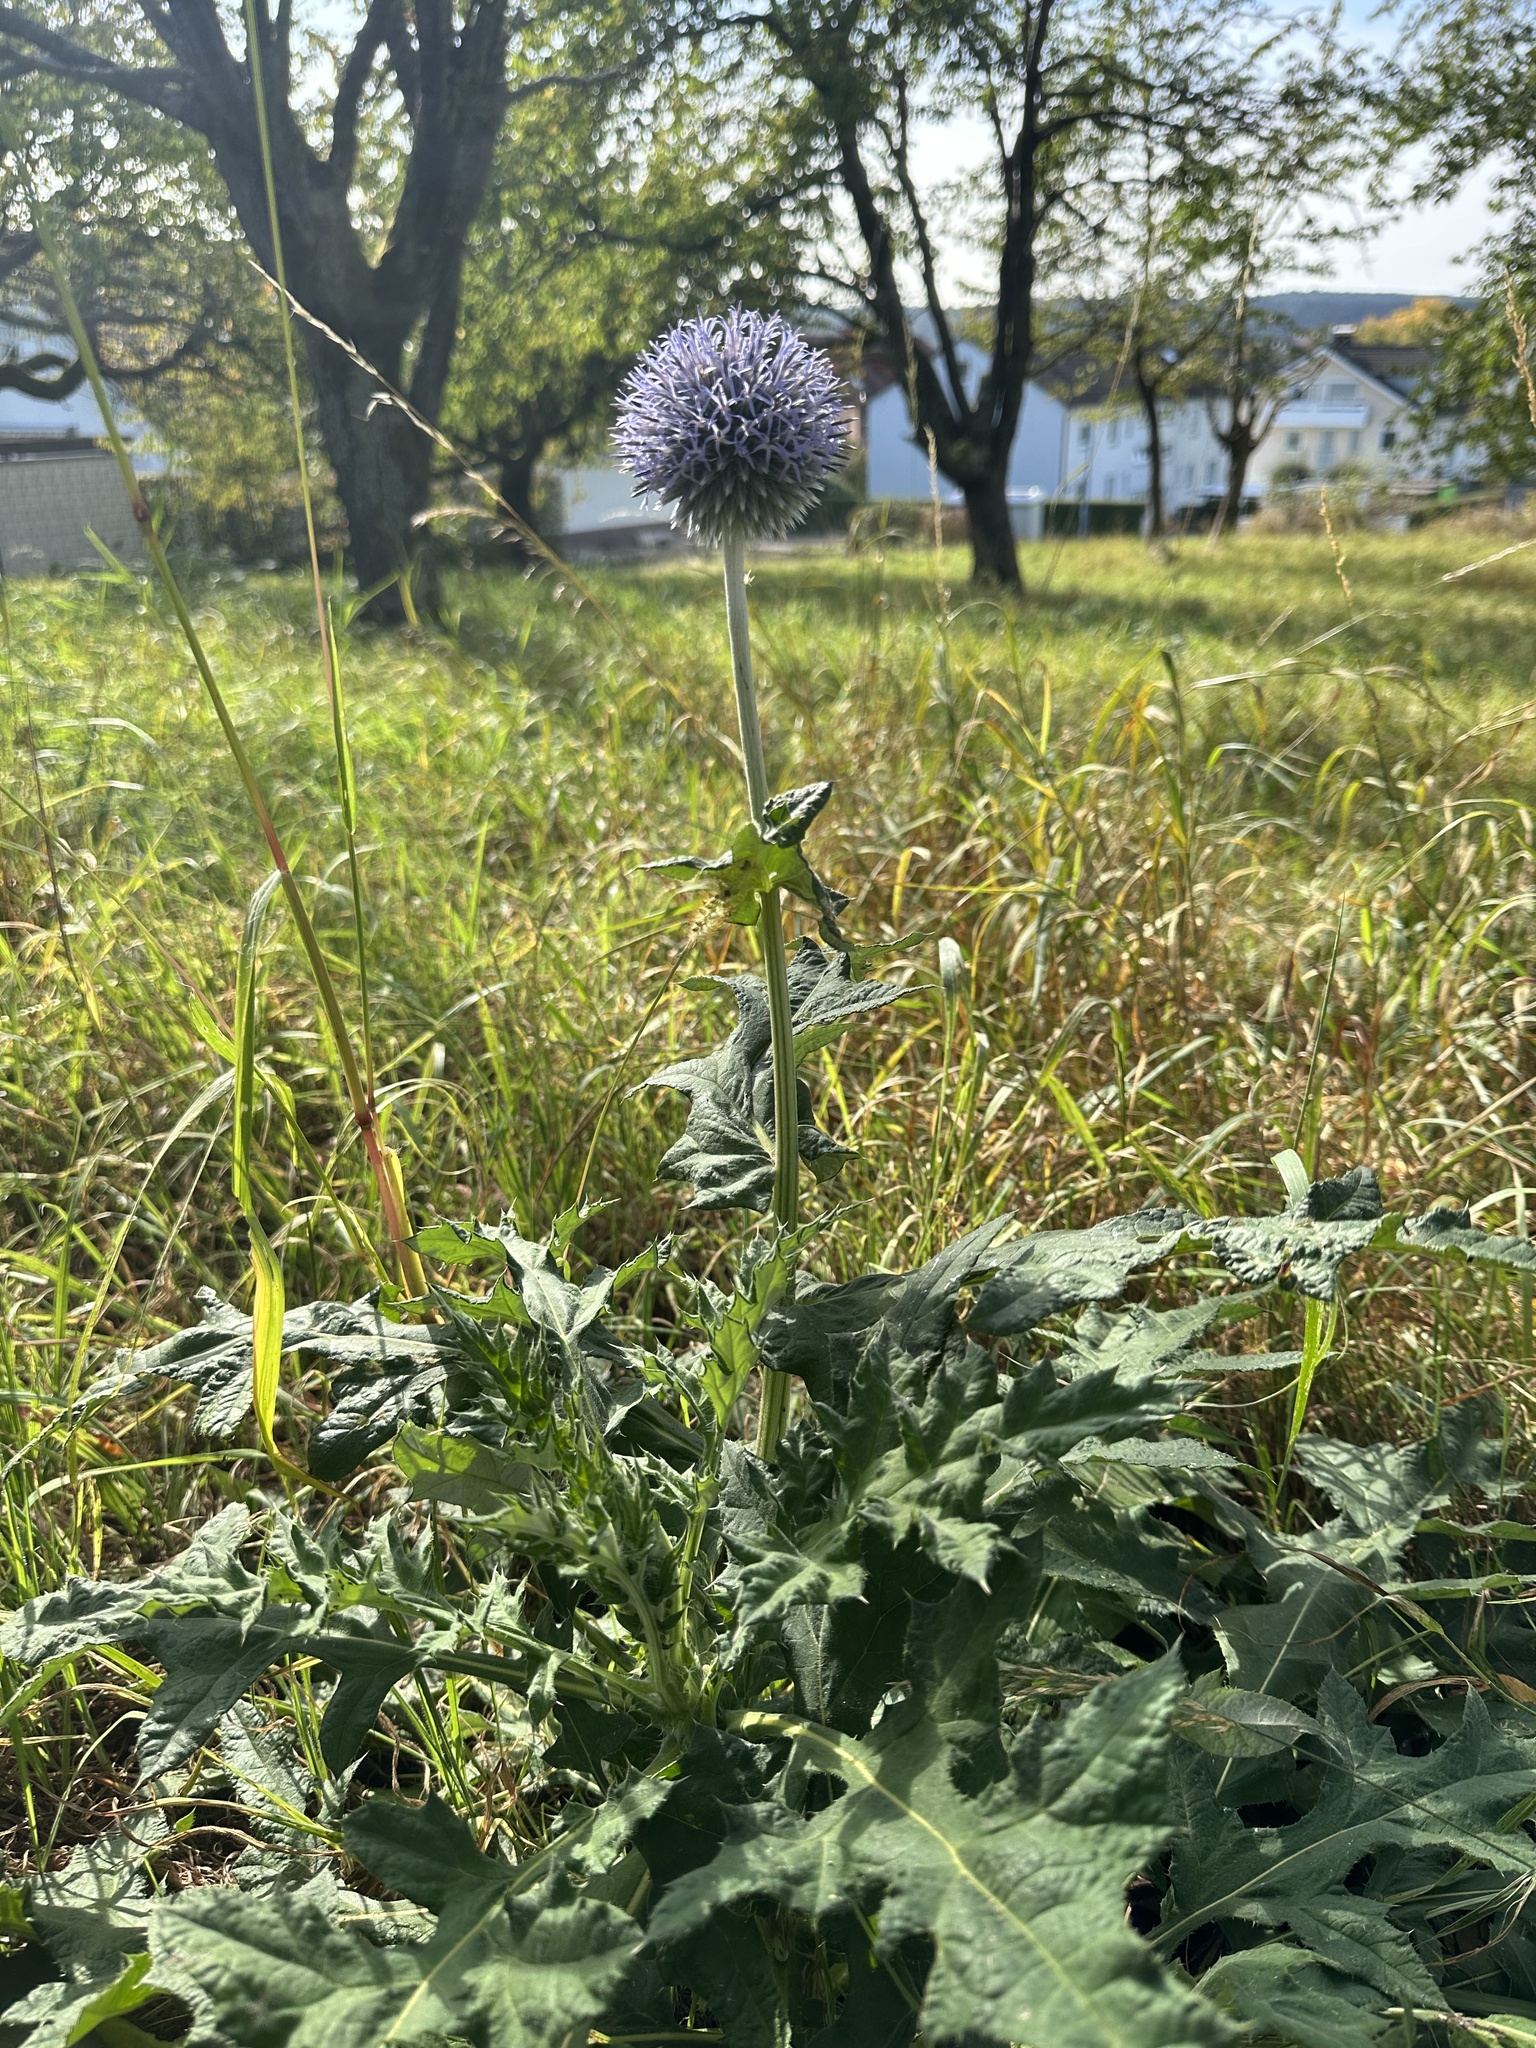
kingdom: Plantae
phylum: Tracheophyta
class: Magnoliopsida
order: Asterales
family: Asteraceae
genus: Echinops
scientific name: Echinops bannaticus
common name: Blue globe-thistle
